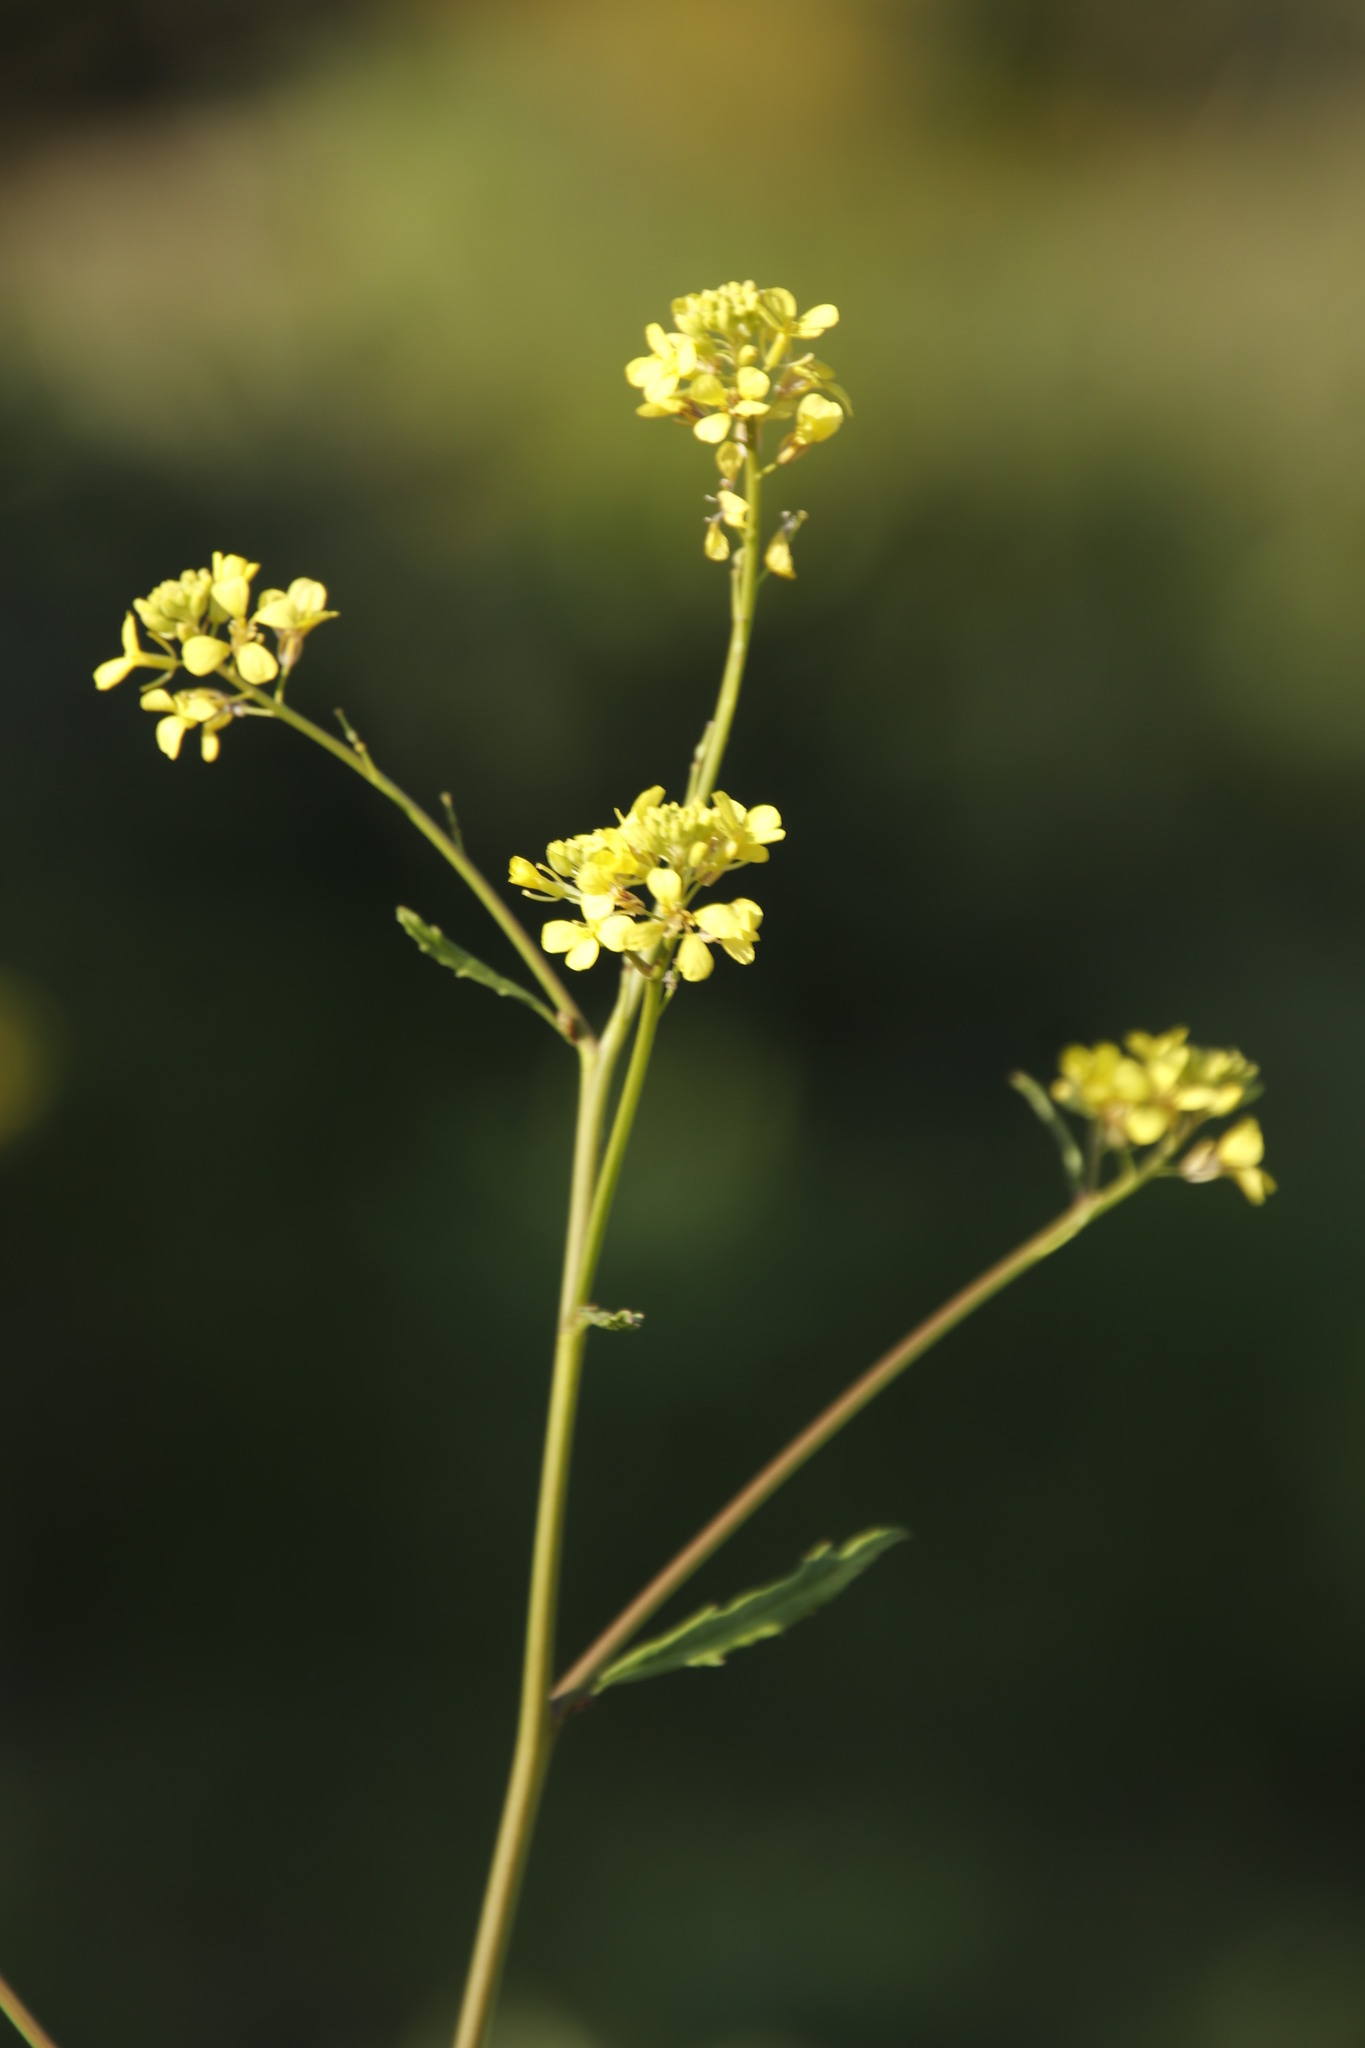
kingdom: Plantae
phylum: Tracheophyta
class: Magnoliopsida
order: Brassicales
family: Brassicaceae
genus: Rapistrum
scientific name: Rapistrum rugosum
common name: Annual bastardcabbage
